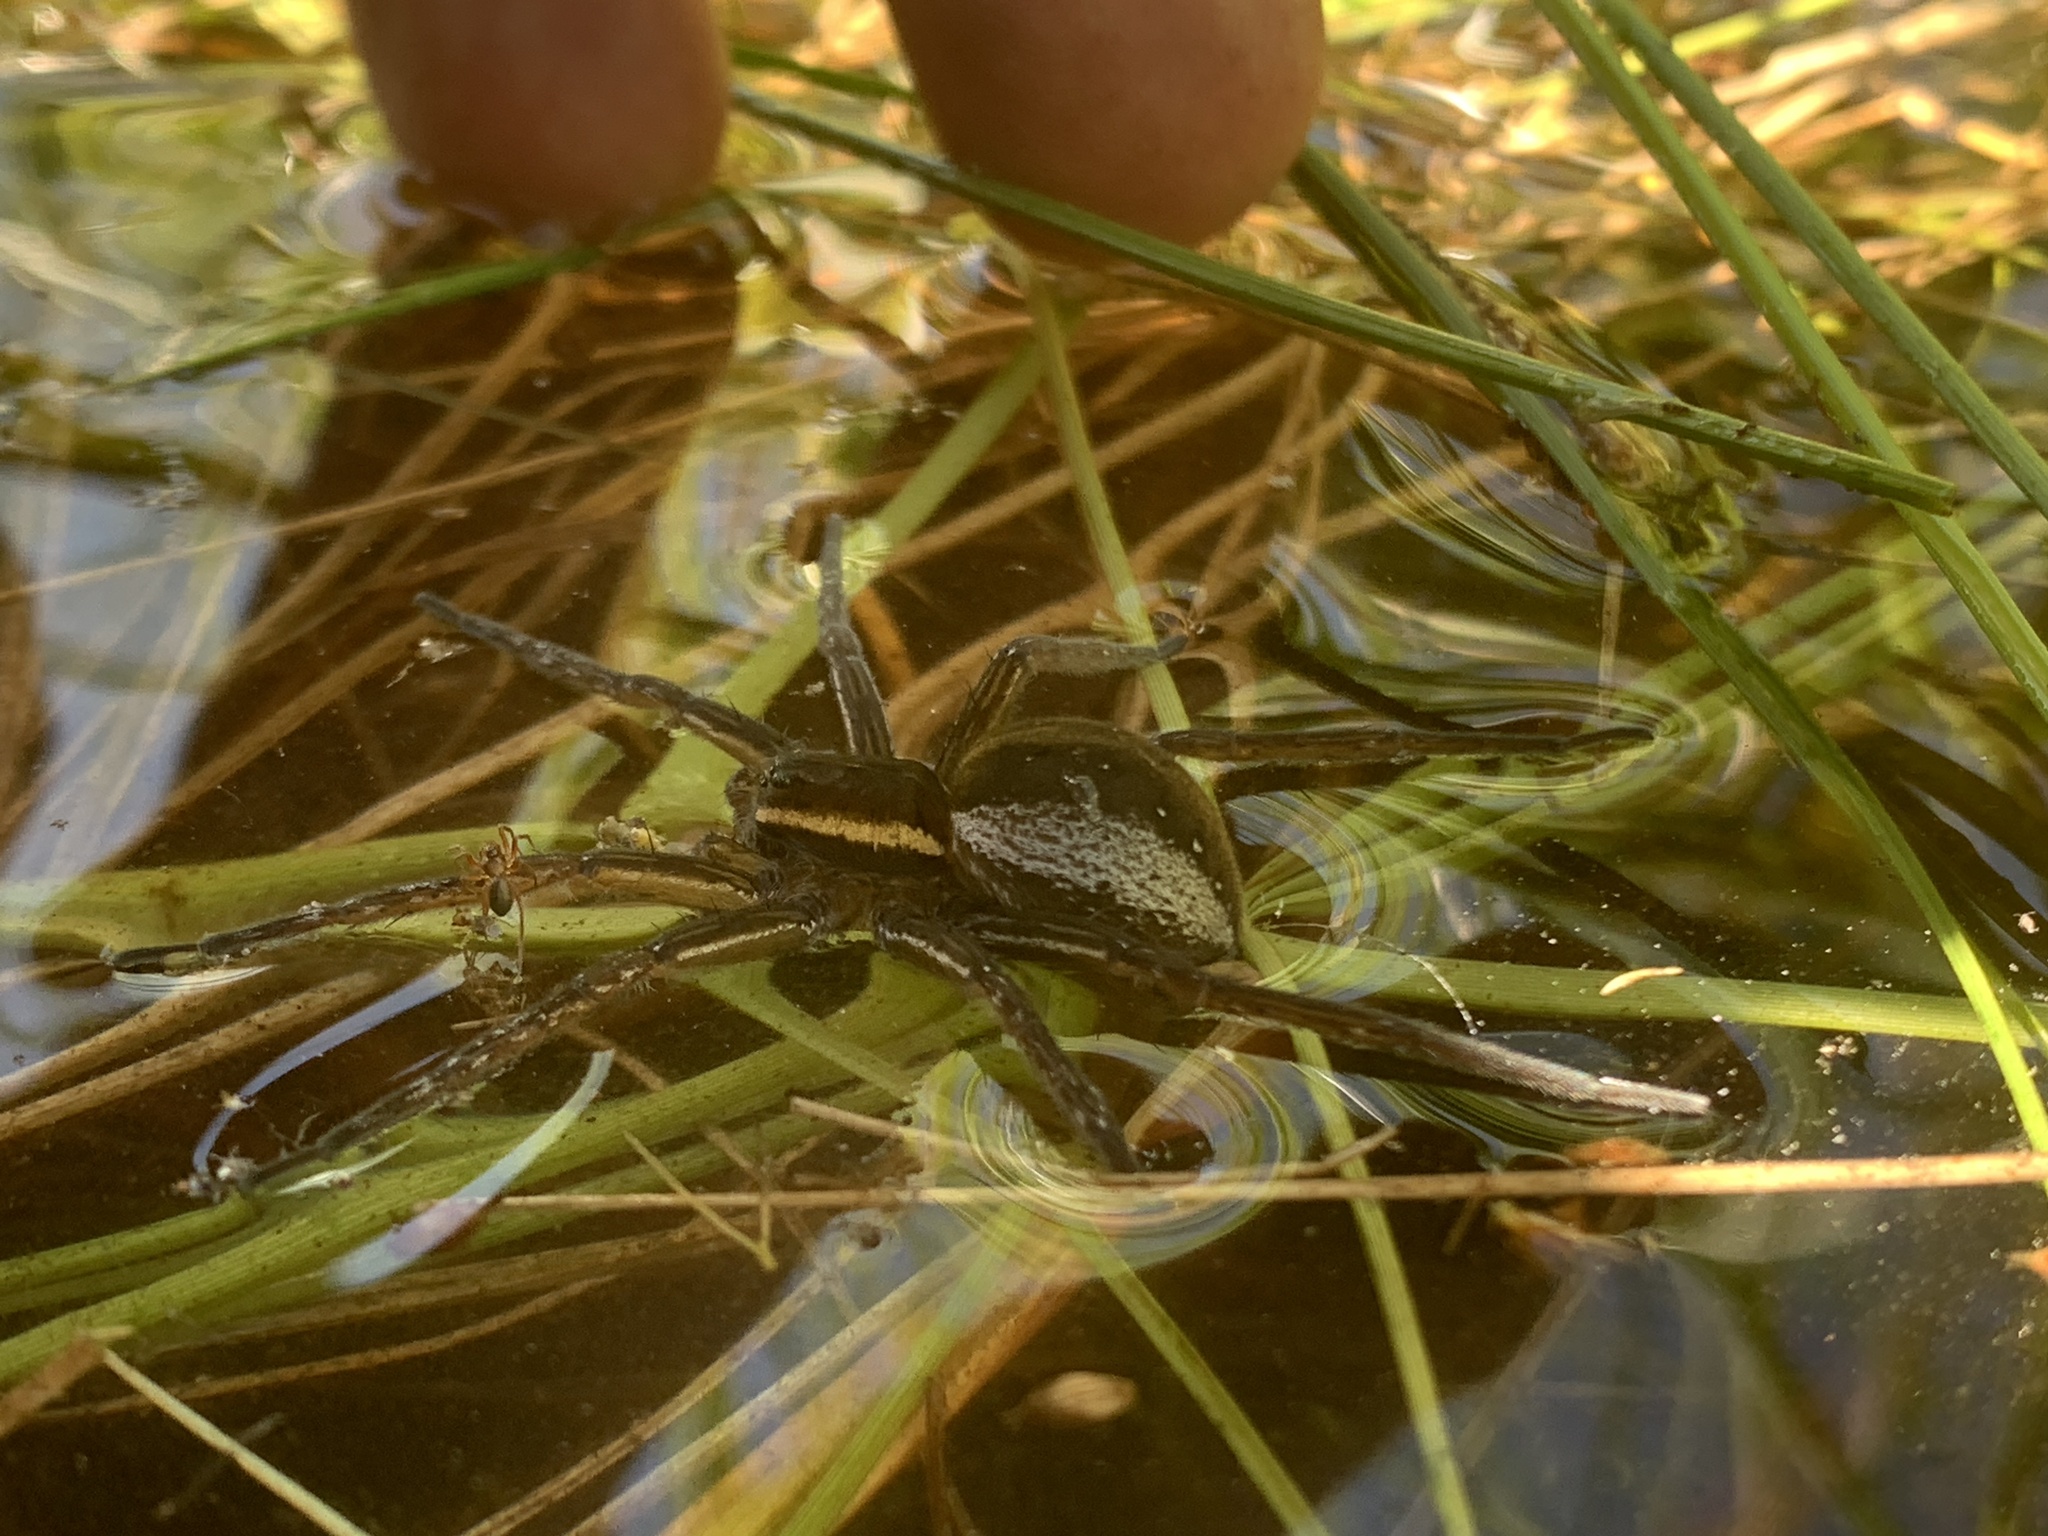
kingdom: Animalia
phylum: Arthropoda
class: Arachnida
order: Araneae
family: Pisauridae
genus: Dolomedes
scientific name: Dolomedes triton
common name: Six-spotted fishing spider
